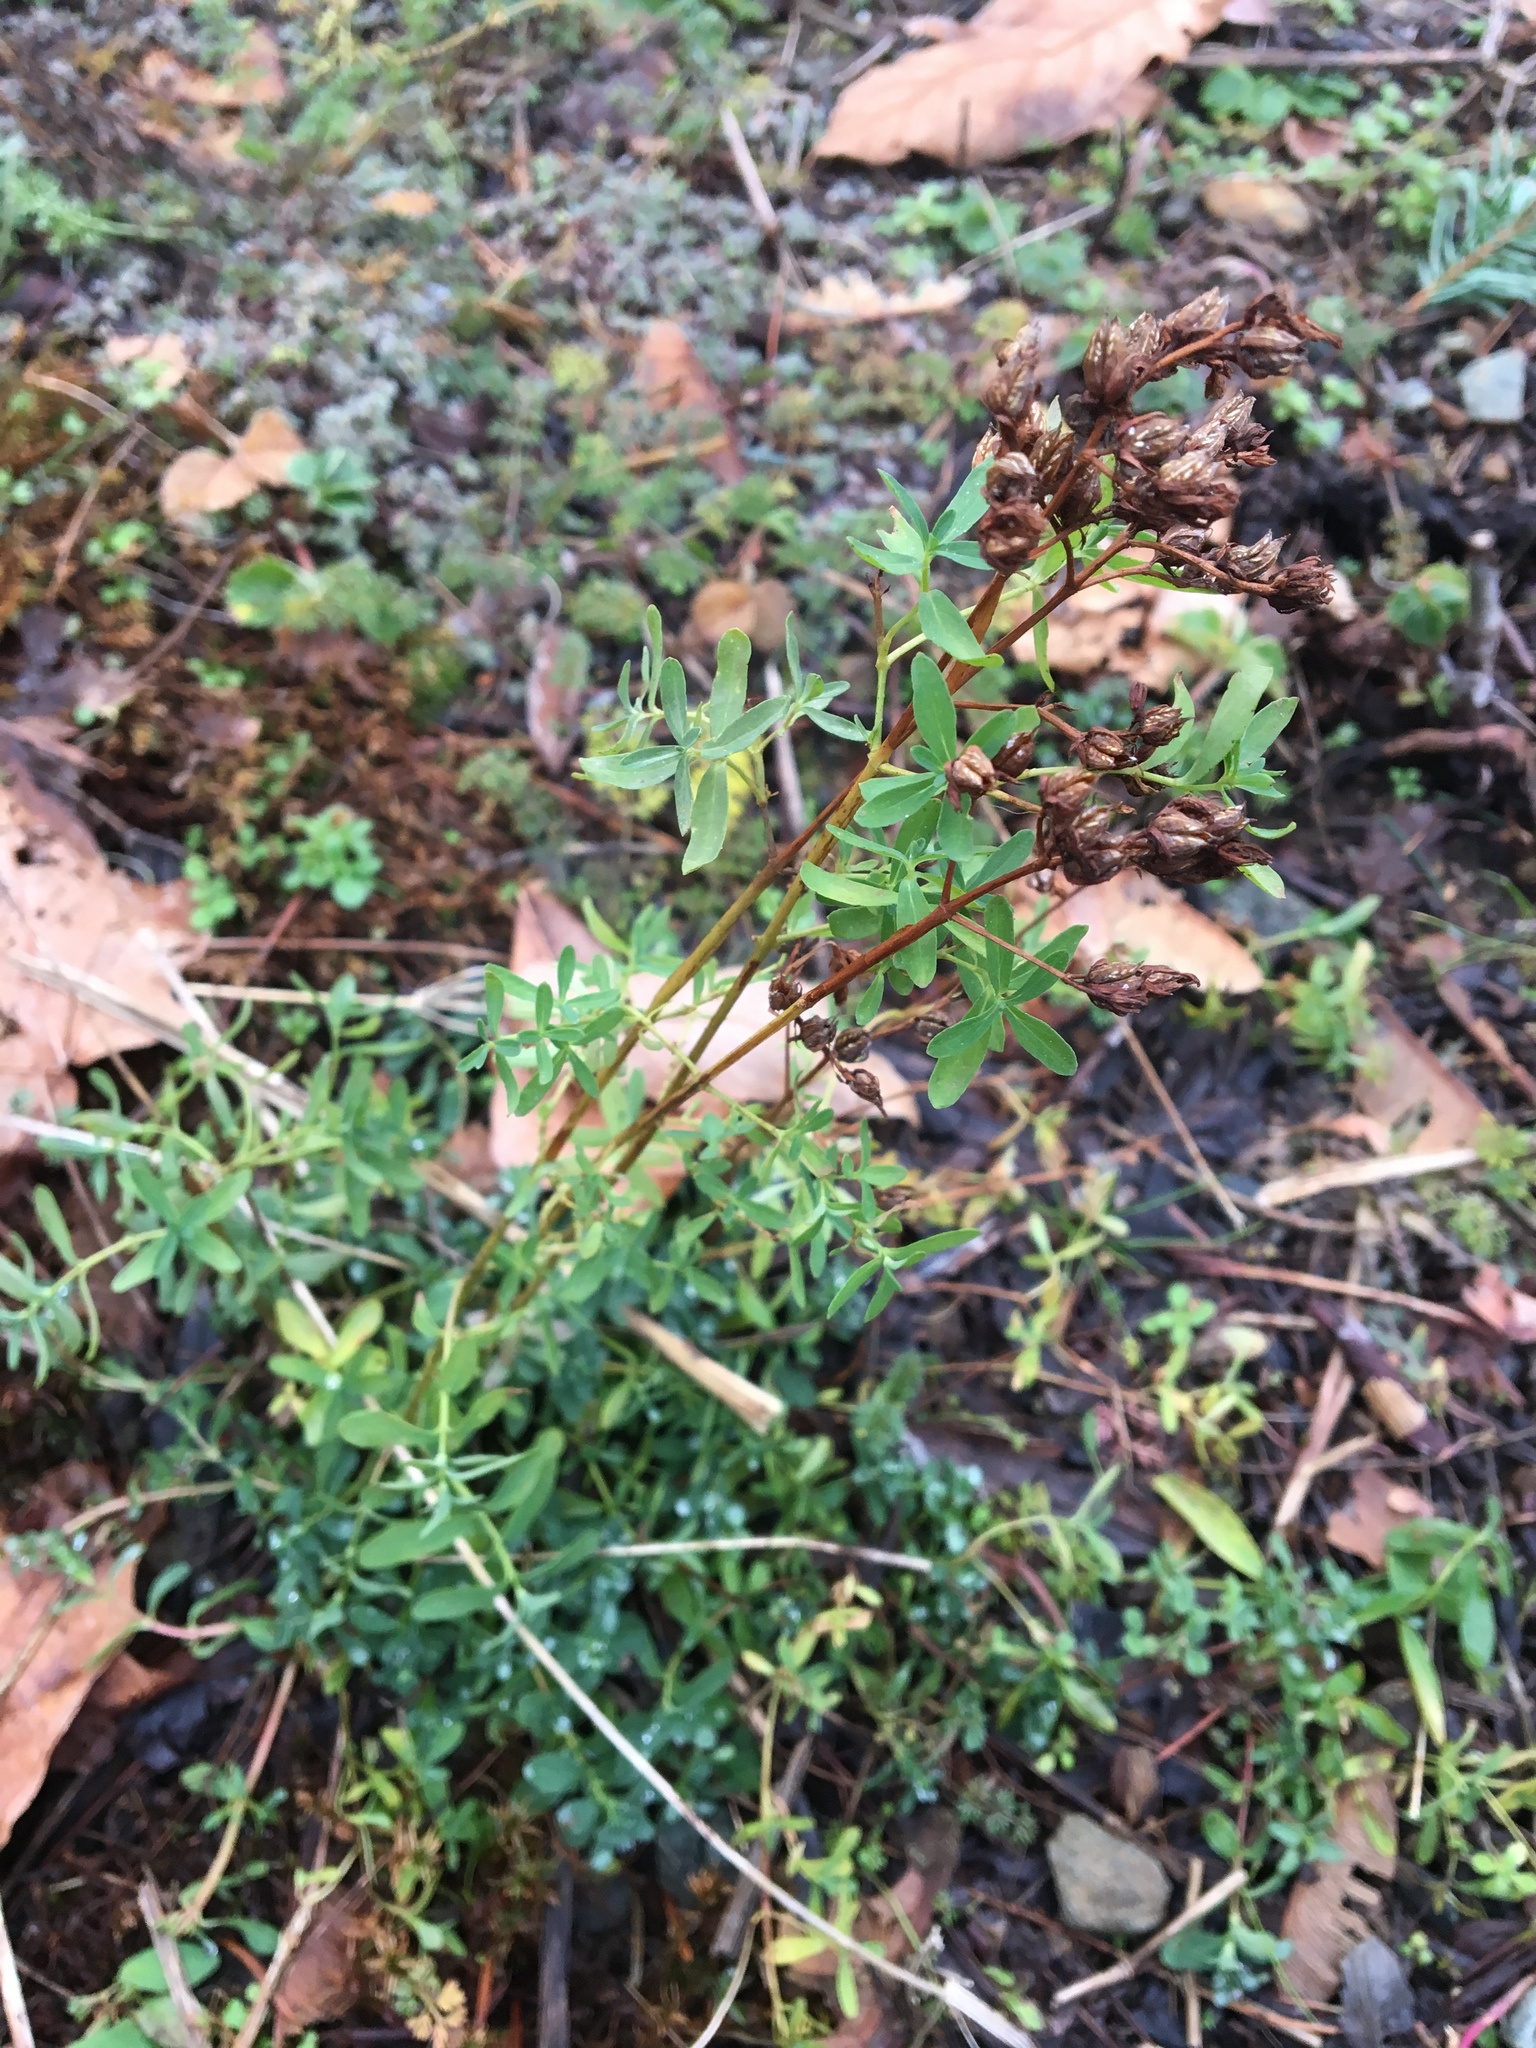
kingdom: Plantae
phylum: Tracheophyta
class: Magnoliopsida
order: Malpighiales
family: Hypericaceae
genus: Hypericum
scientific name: Hypericum perforatum
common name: Common st. johnswort
